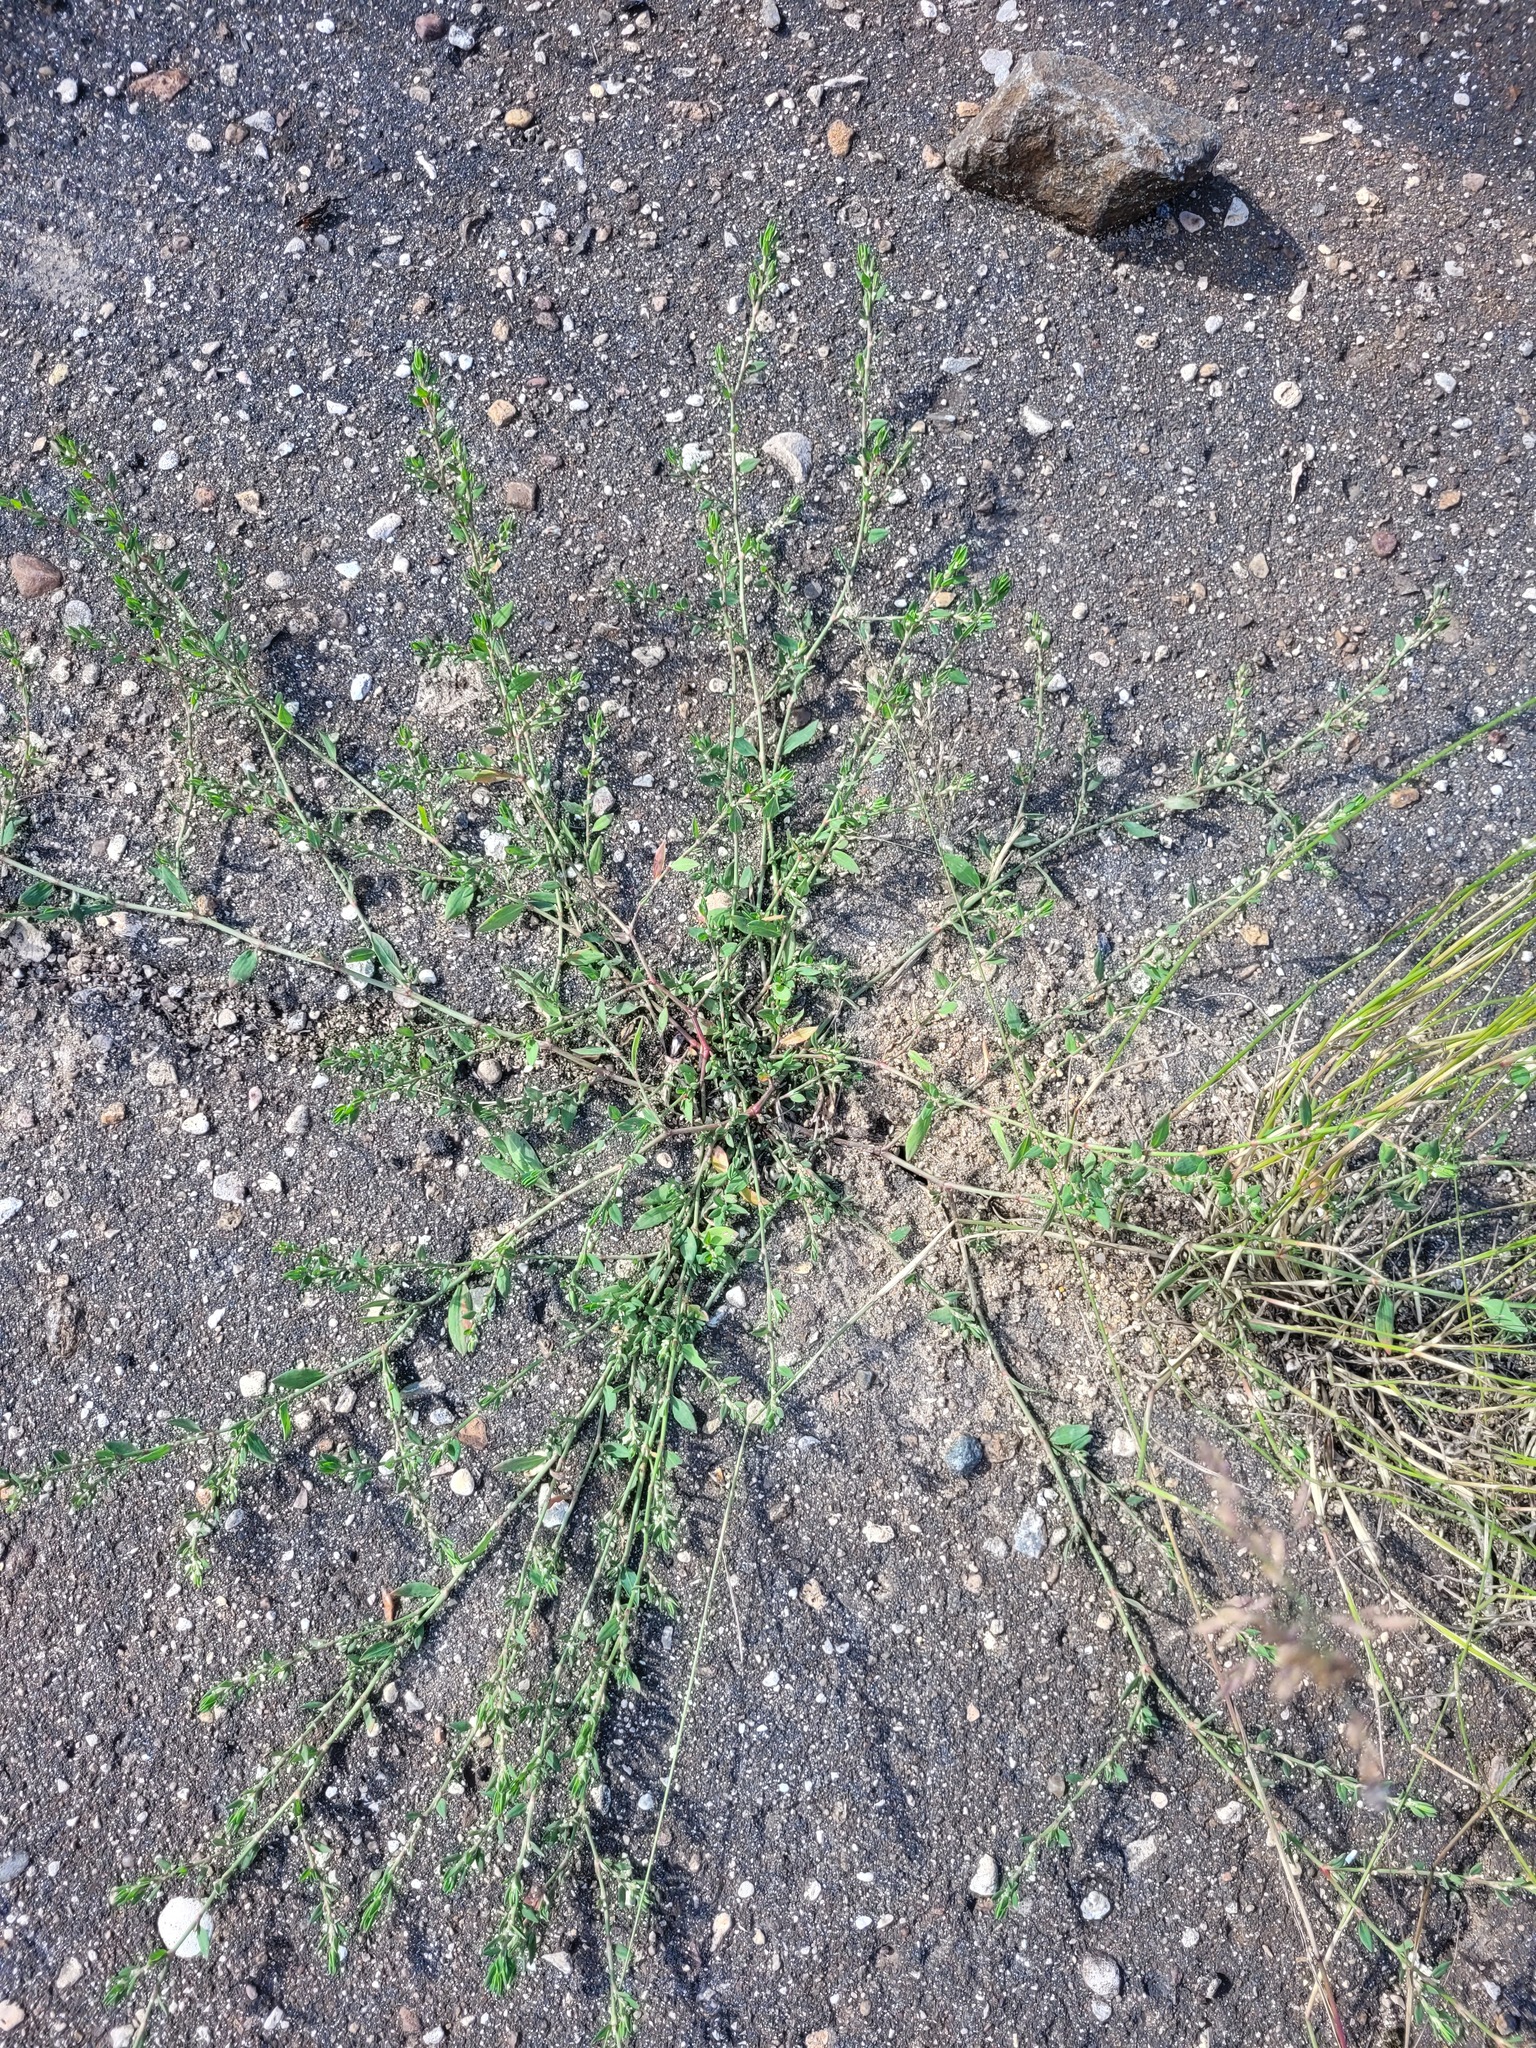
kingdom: Plantae
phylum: Tracheophyta
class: Magnoliopsida
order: Caryophyllales
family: Polygonaceae
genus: Polygonum
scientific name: Polygonum
